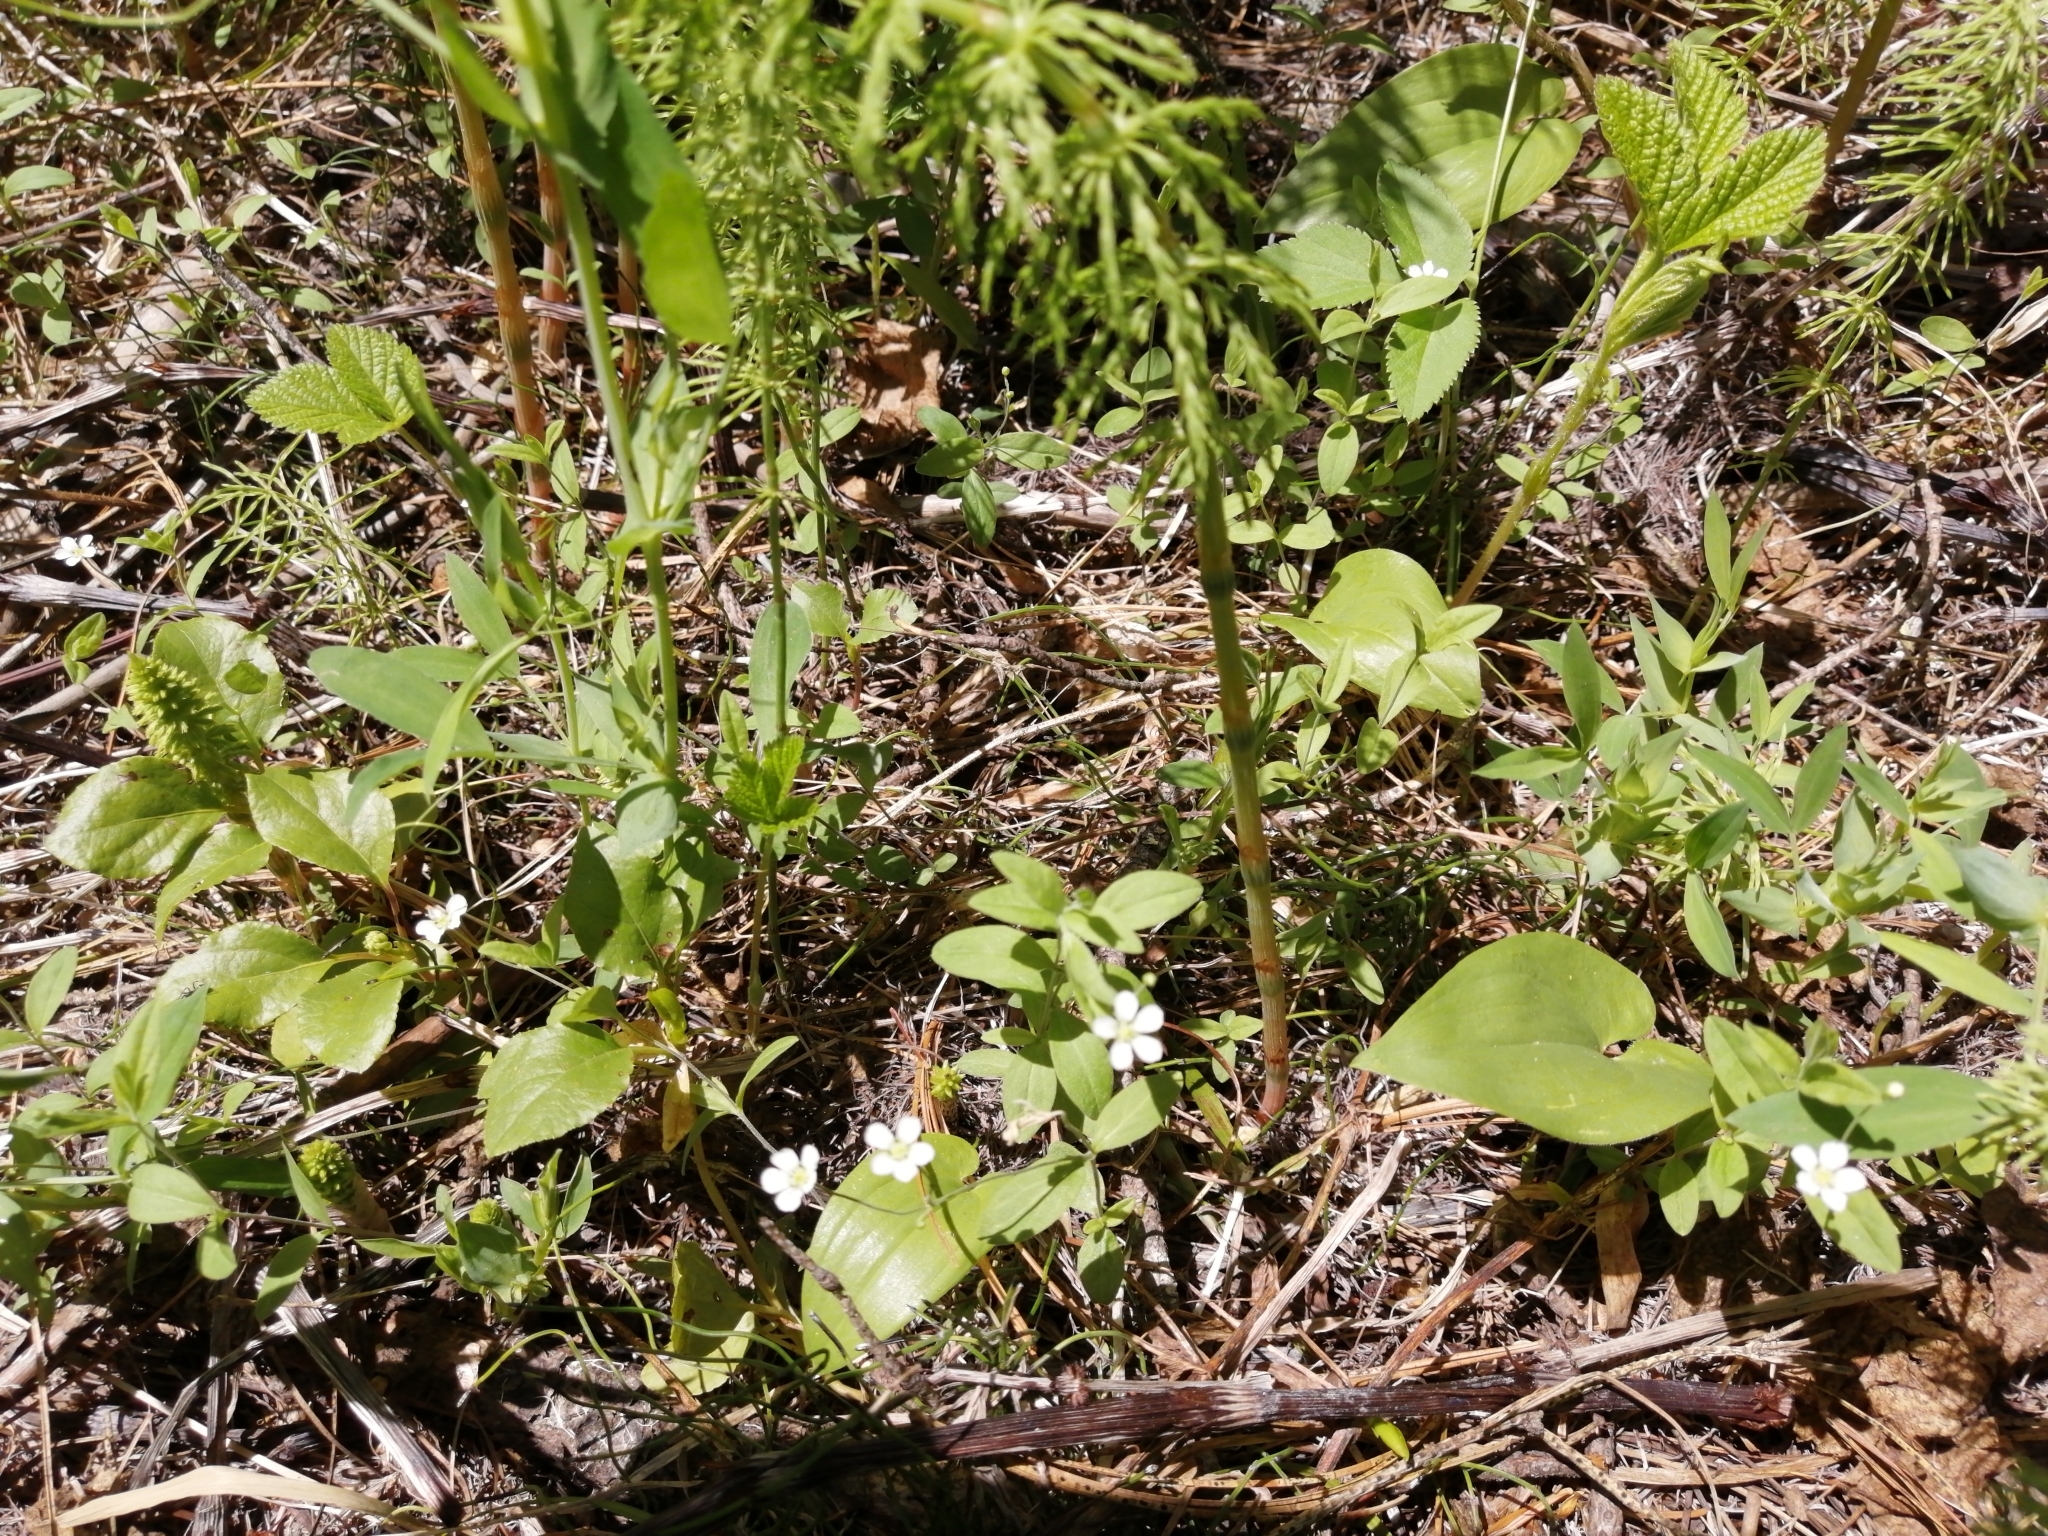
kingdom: Plantae
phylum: Tracheophyta
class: Magnoliopsida
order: Caryophyllales
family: Caryophyllaceae
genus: Moehringia
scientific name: Moehringia lateriflora
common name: Blunt-leaved sandwort
